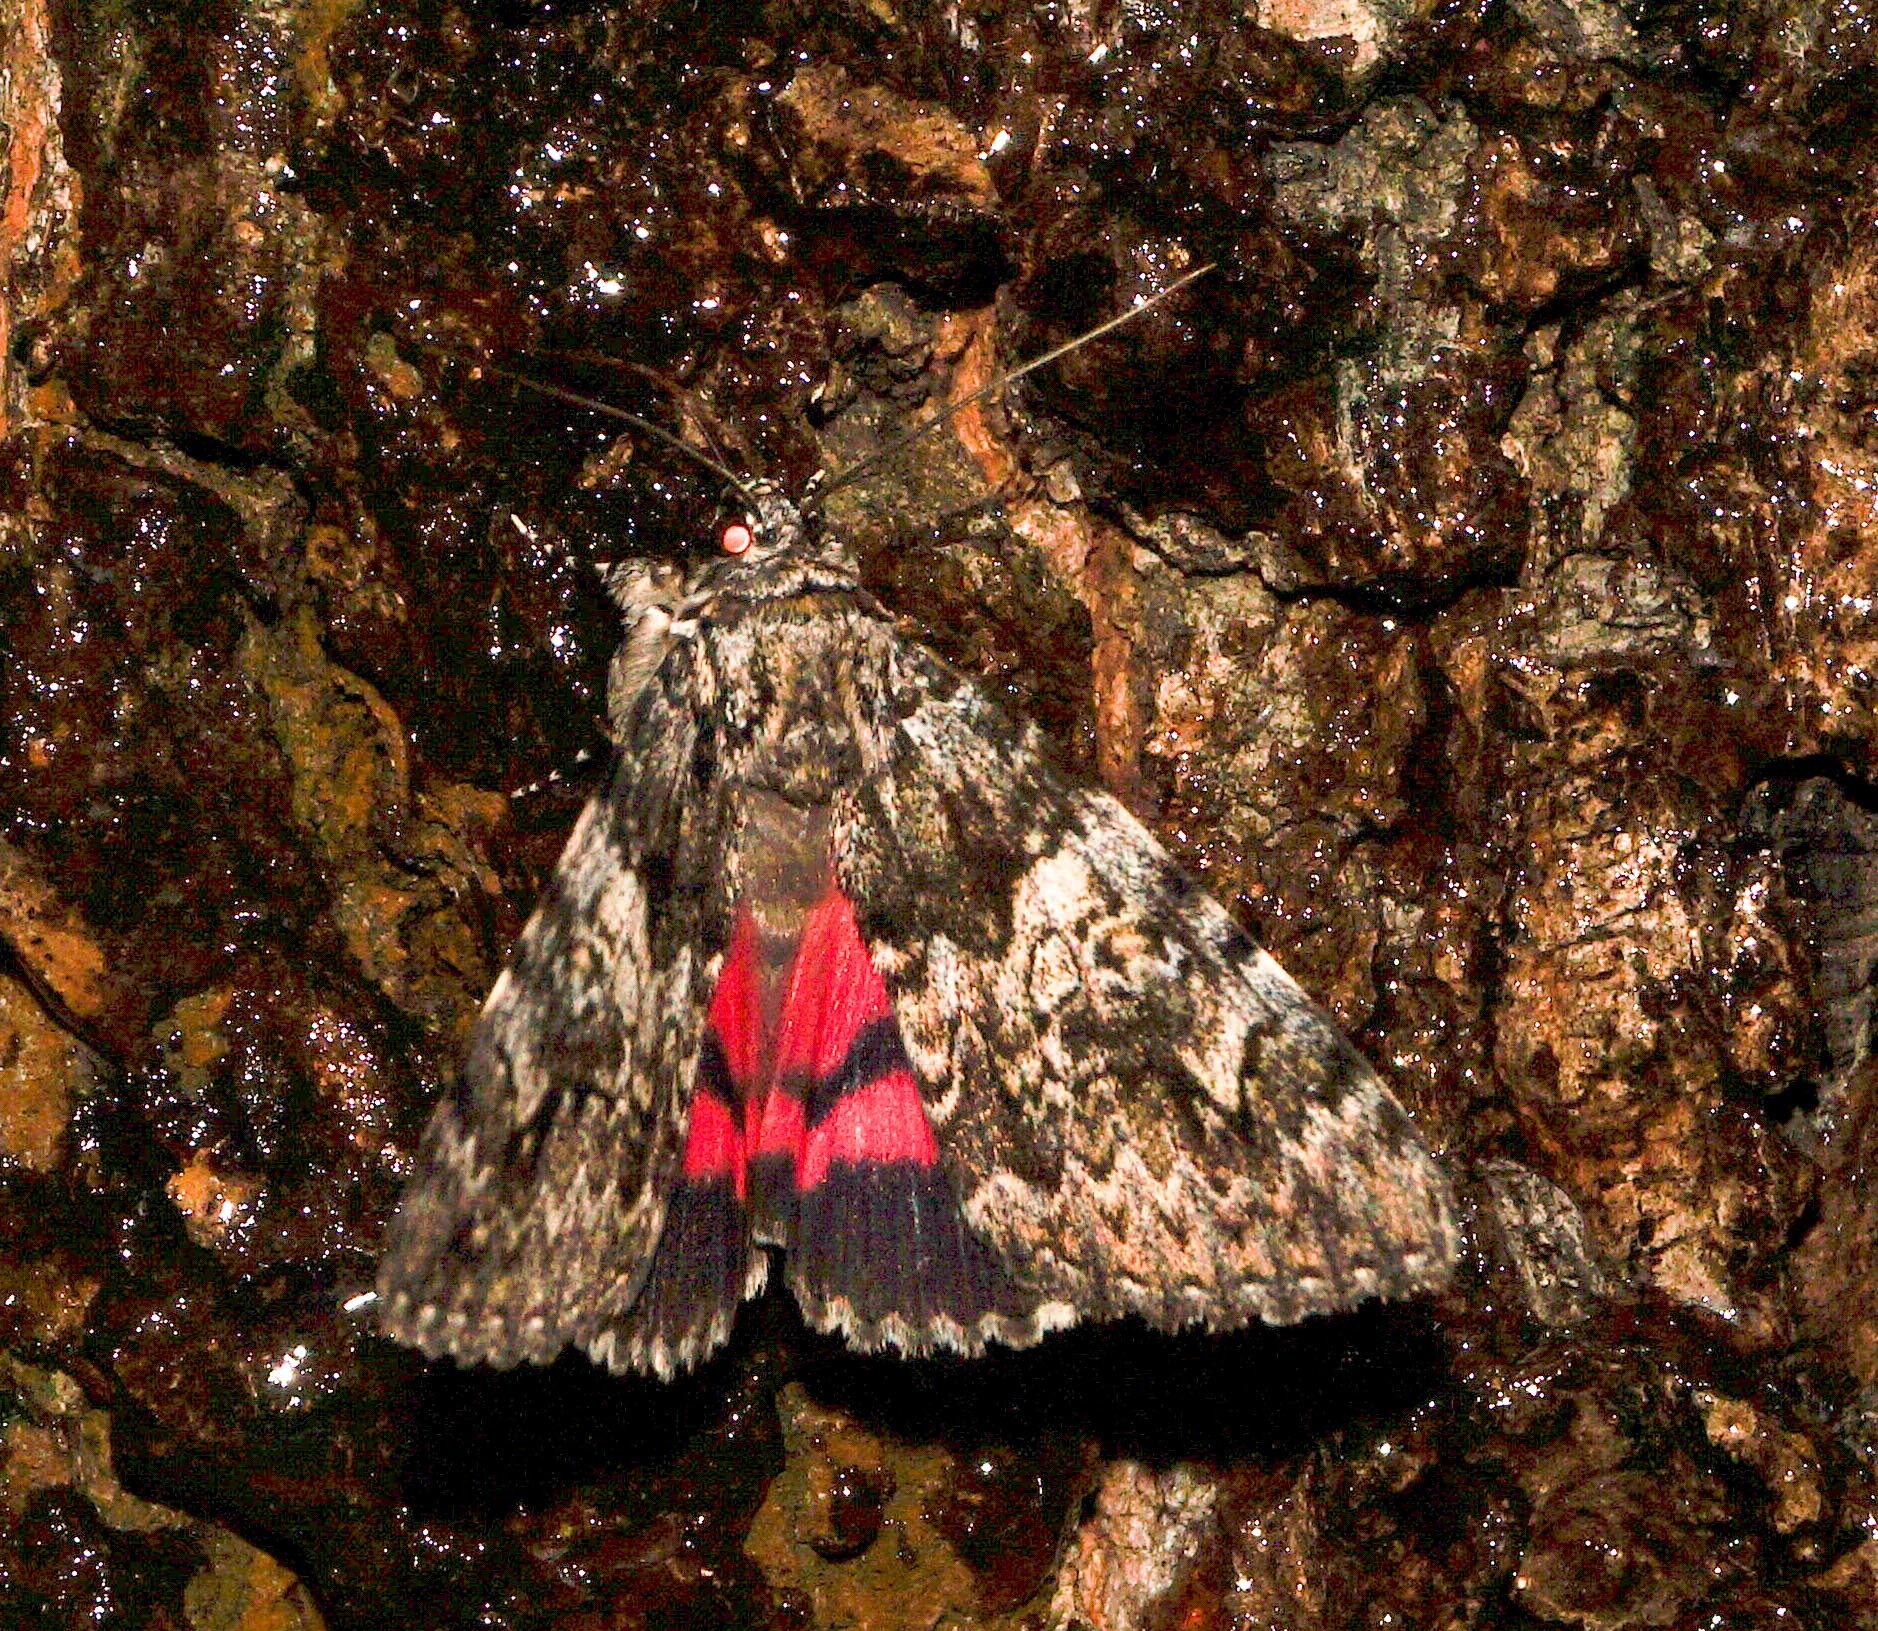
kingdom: Animalia
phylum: Arthropoda
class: Insecta
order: Lepidoptera
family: Erebidae
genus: Catocala
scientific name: Catocala promissa
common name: Light crimson underwing
